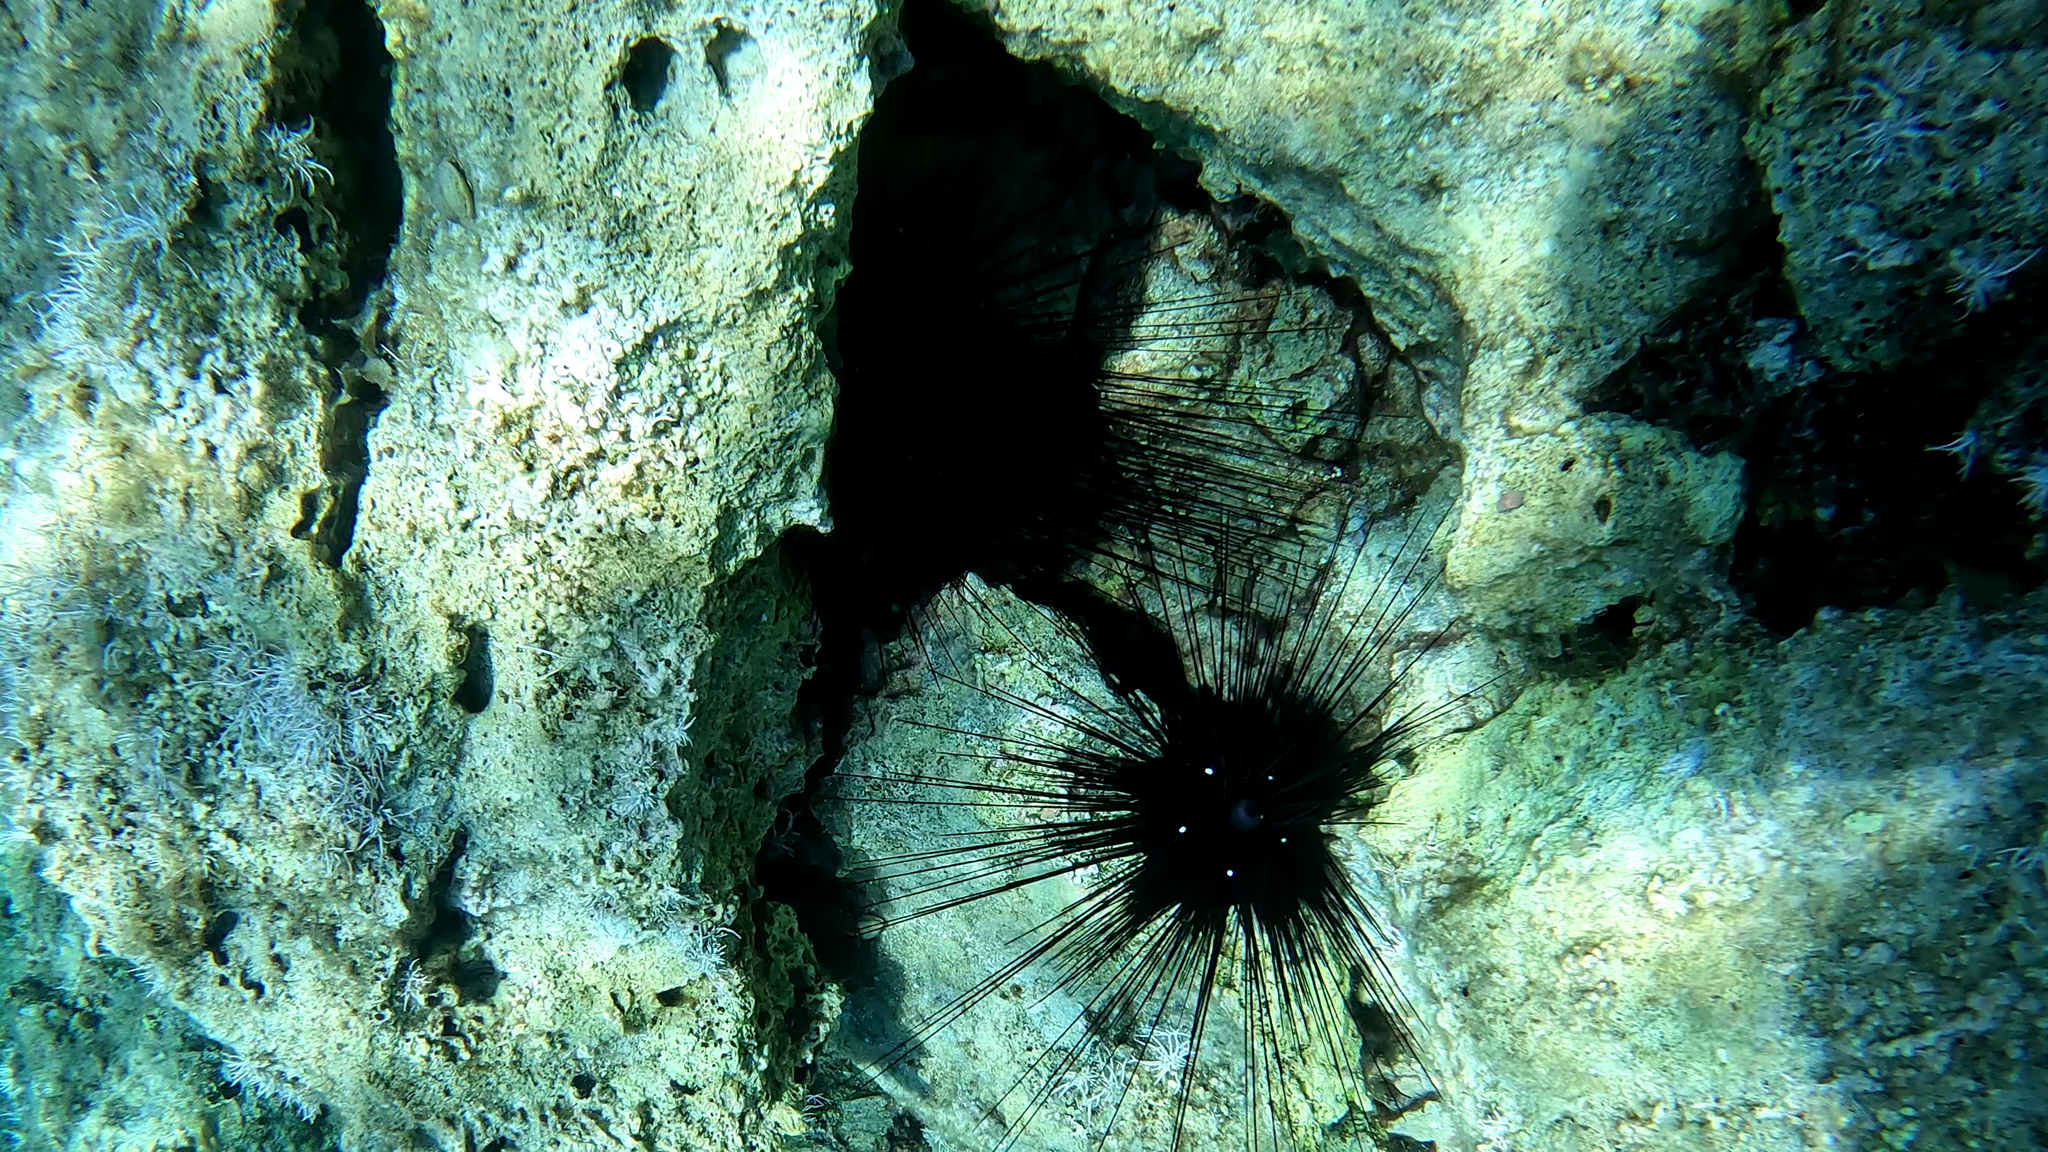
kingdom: Animalia
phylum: Echinodermata
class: Echinoidea
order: Diadematoida
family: Diadematidae
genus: Diadema
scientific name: Diadema setosum
